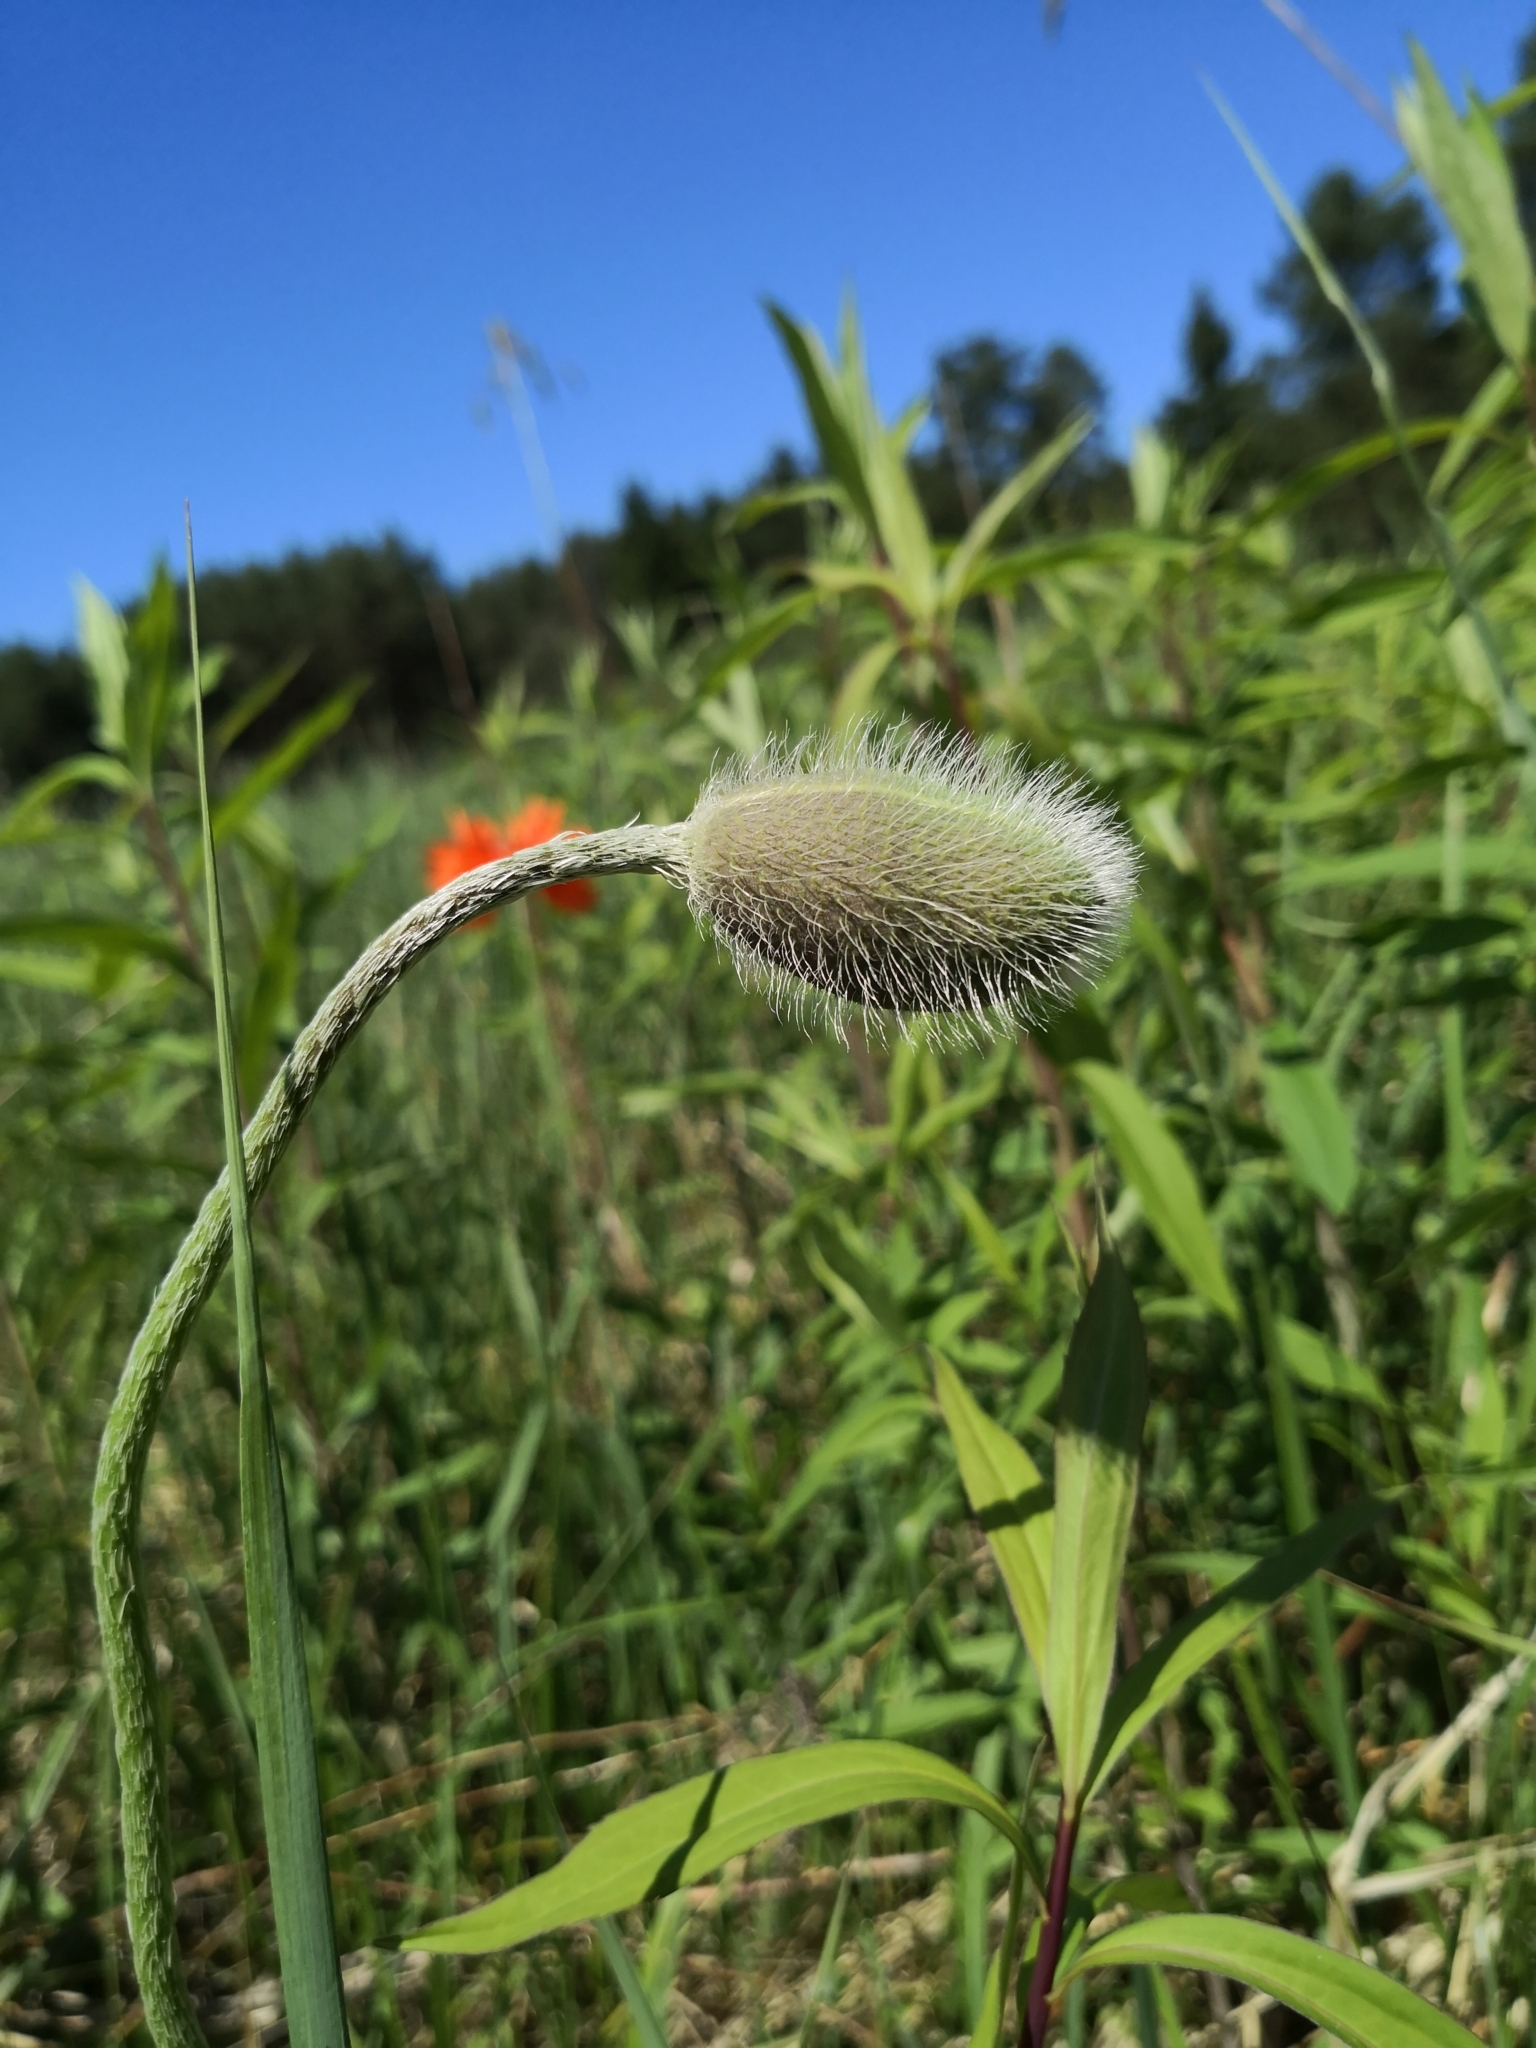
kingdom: Plantae
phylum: Tracheophyta
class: Magnoliopsida
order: Ranunculales
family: Papaveraceae
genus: Papaver
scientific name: Papaver orientale
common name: Oriental poppy
